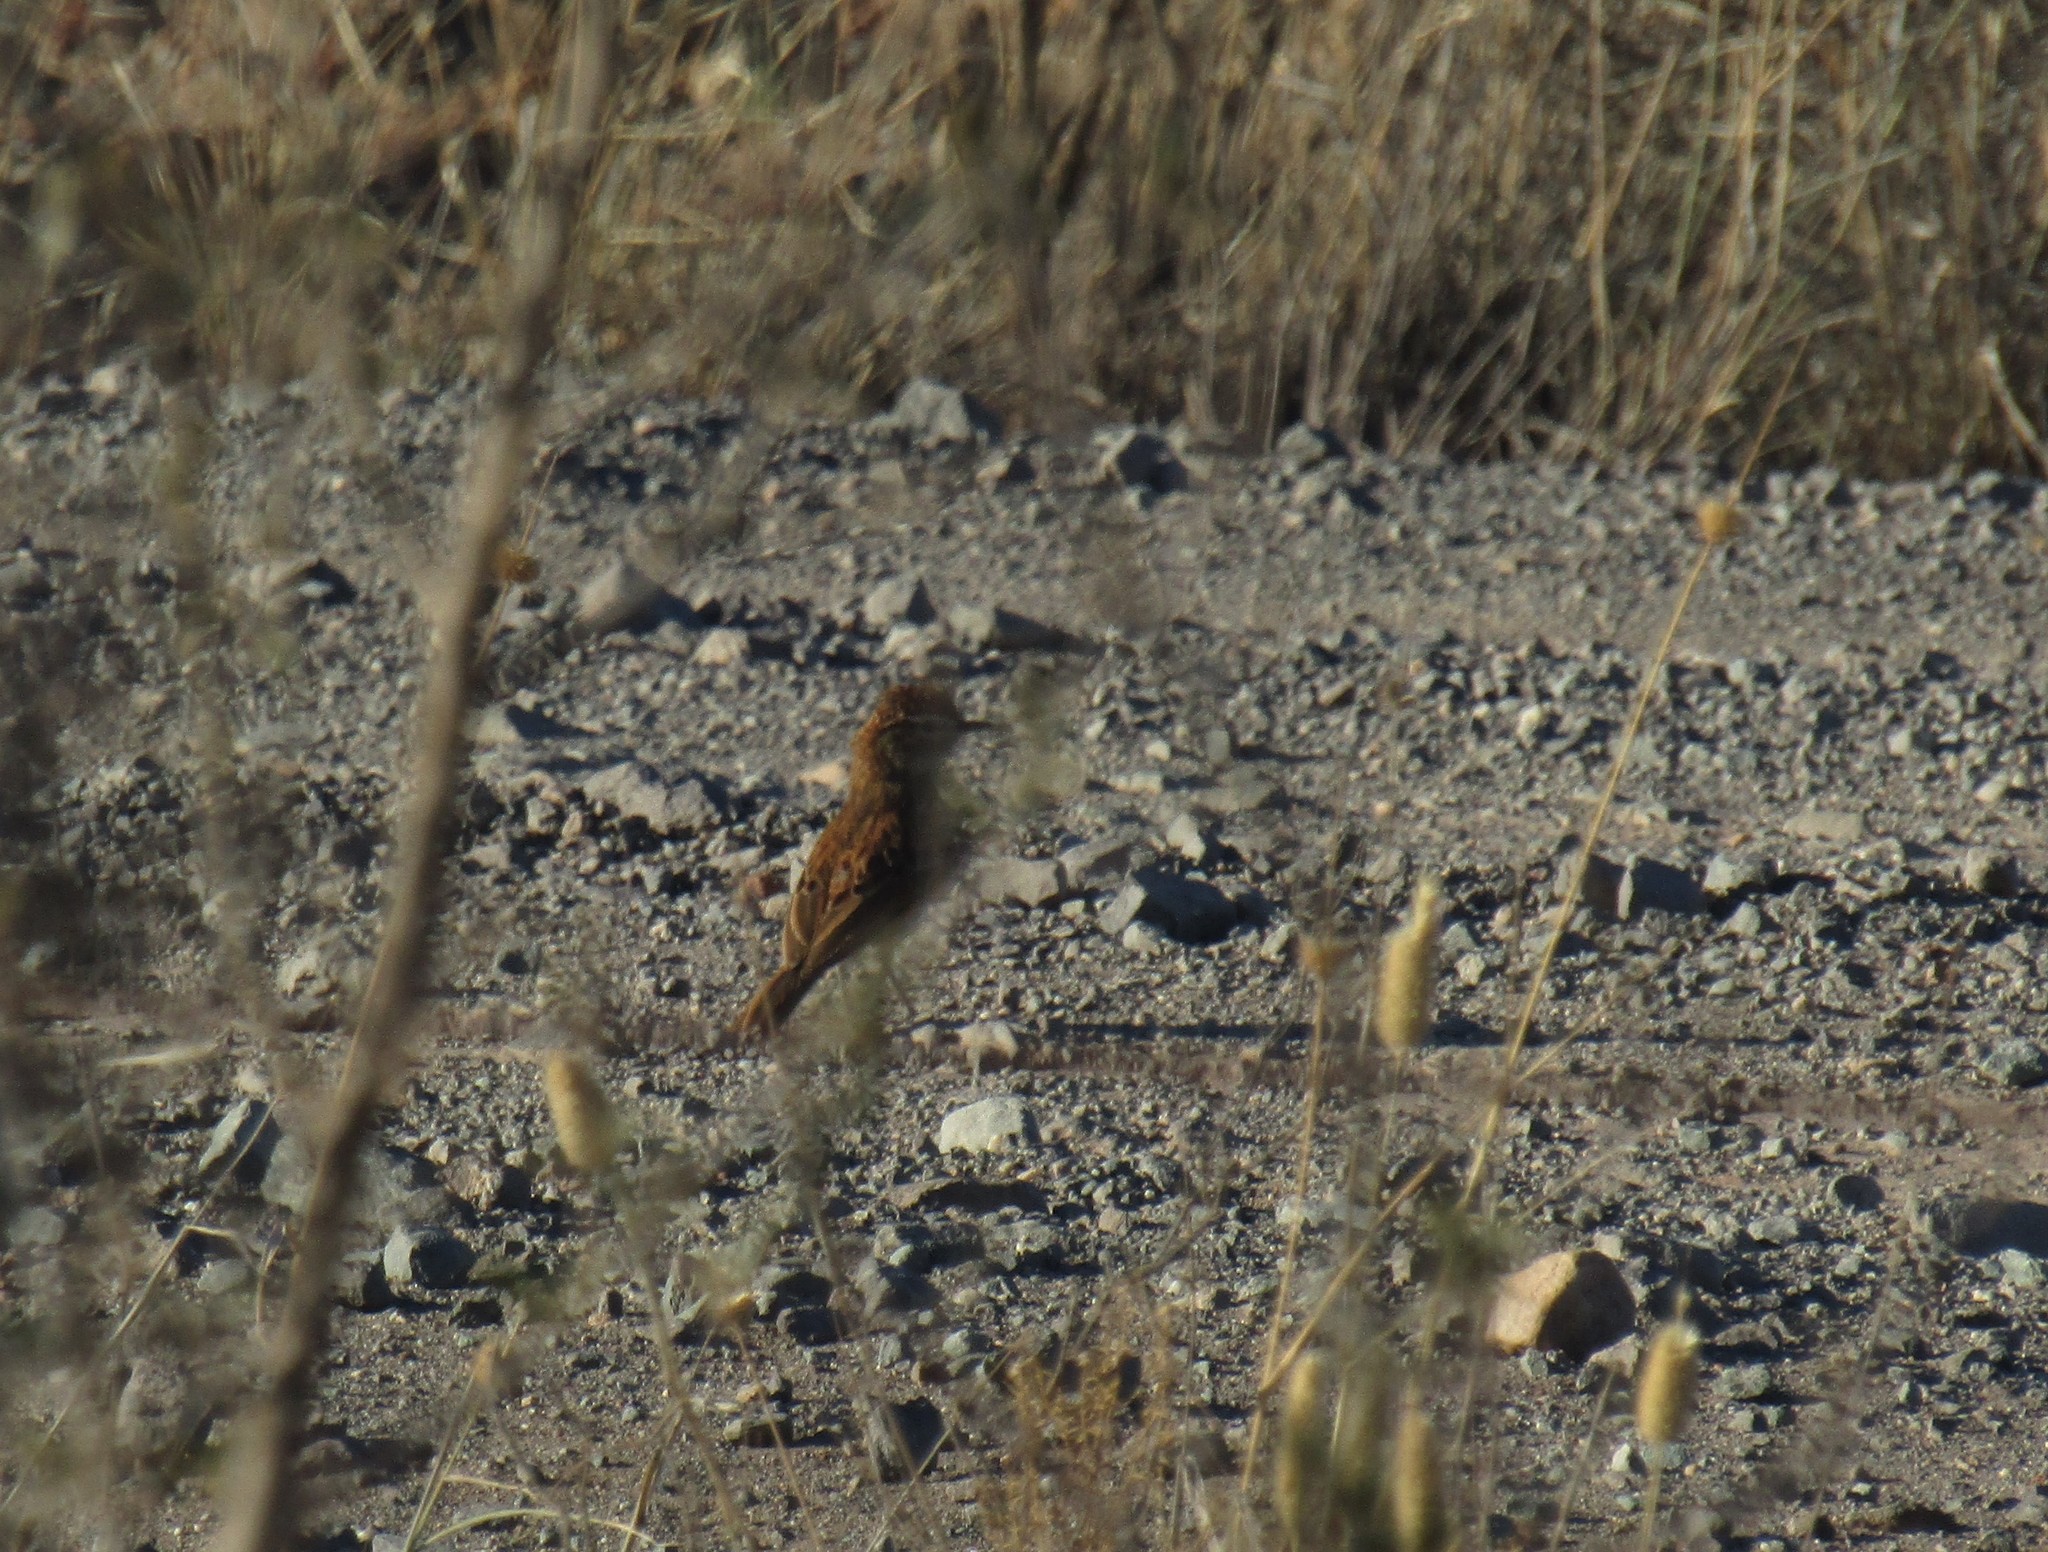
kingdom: Animalia
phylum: Chordata
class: Aves
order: Passeriformes
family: Alaudidae
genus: Calendulauda
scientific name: Calendulauda albescens
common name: Karoo lark
